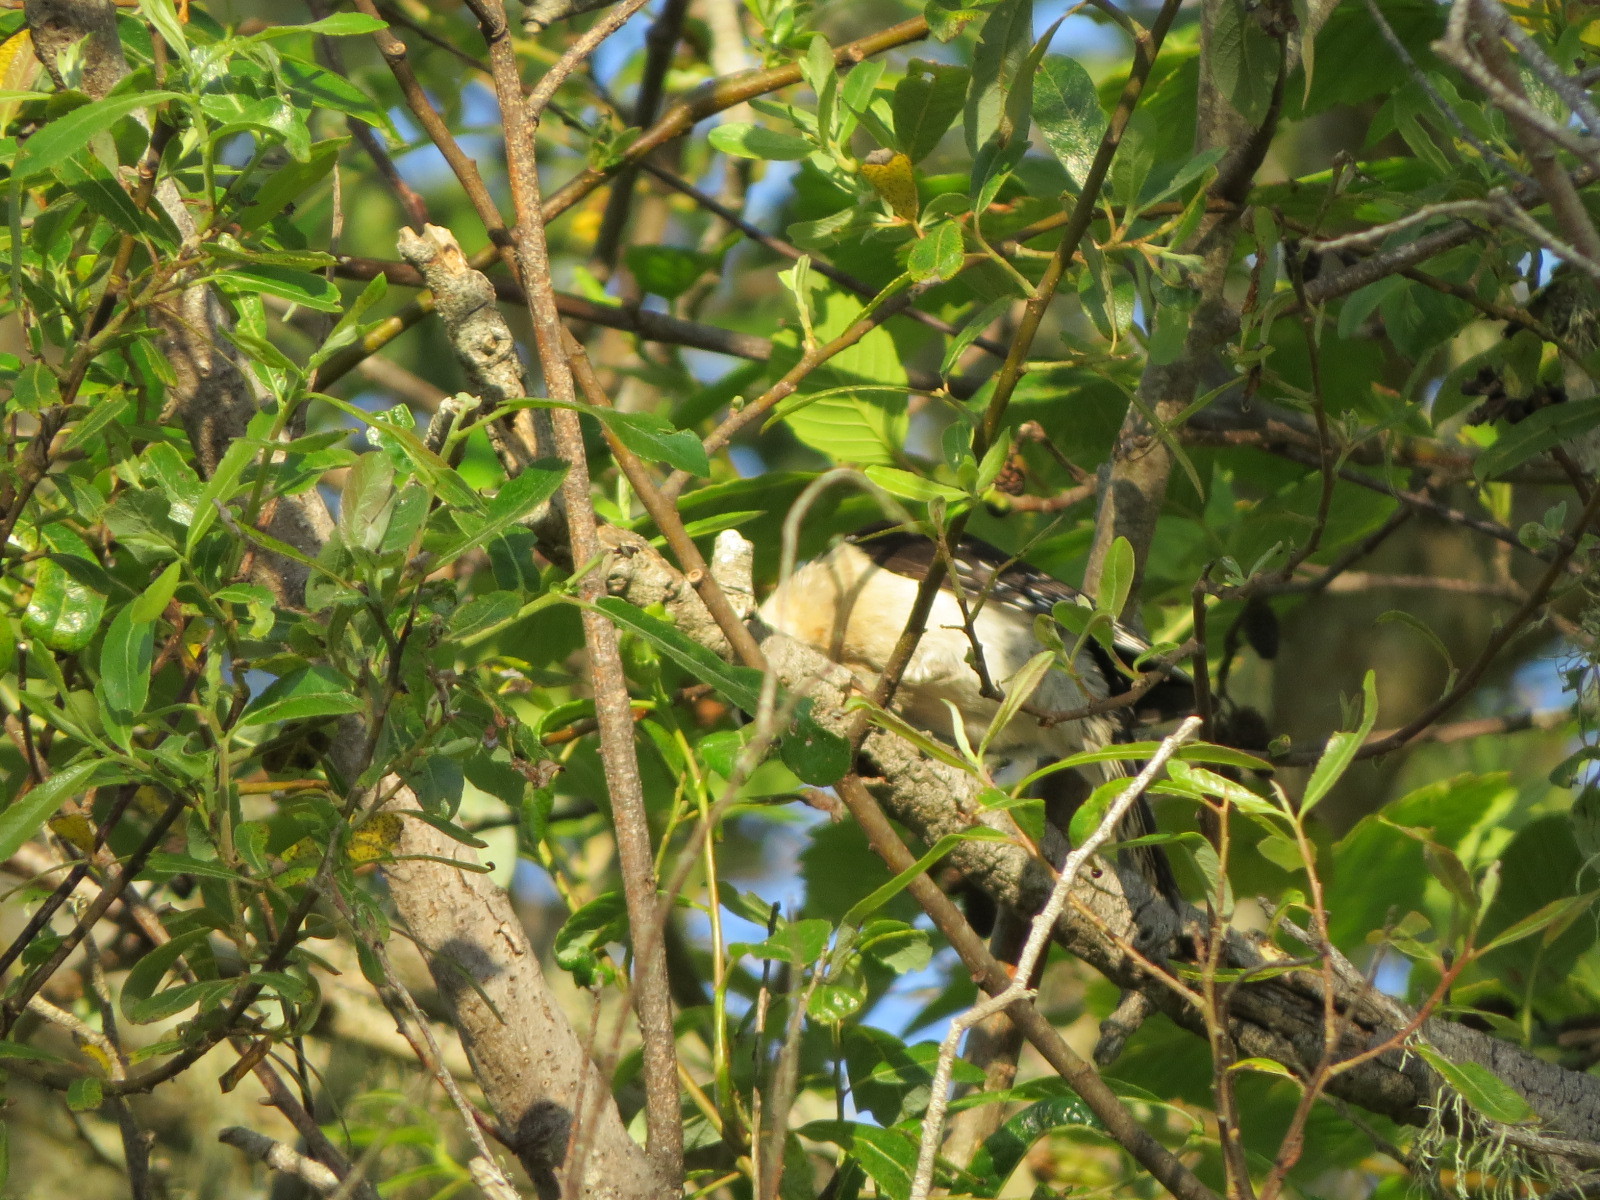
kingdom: Animalia
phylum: Chordata
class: Aves
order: Piciformes
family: Picidae
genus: Dryobates
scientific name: Dryobates pubescens
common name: Downy woodpecker
